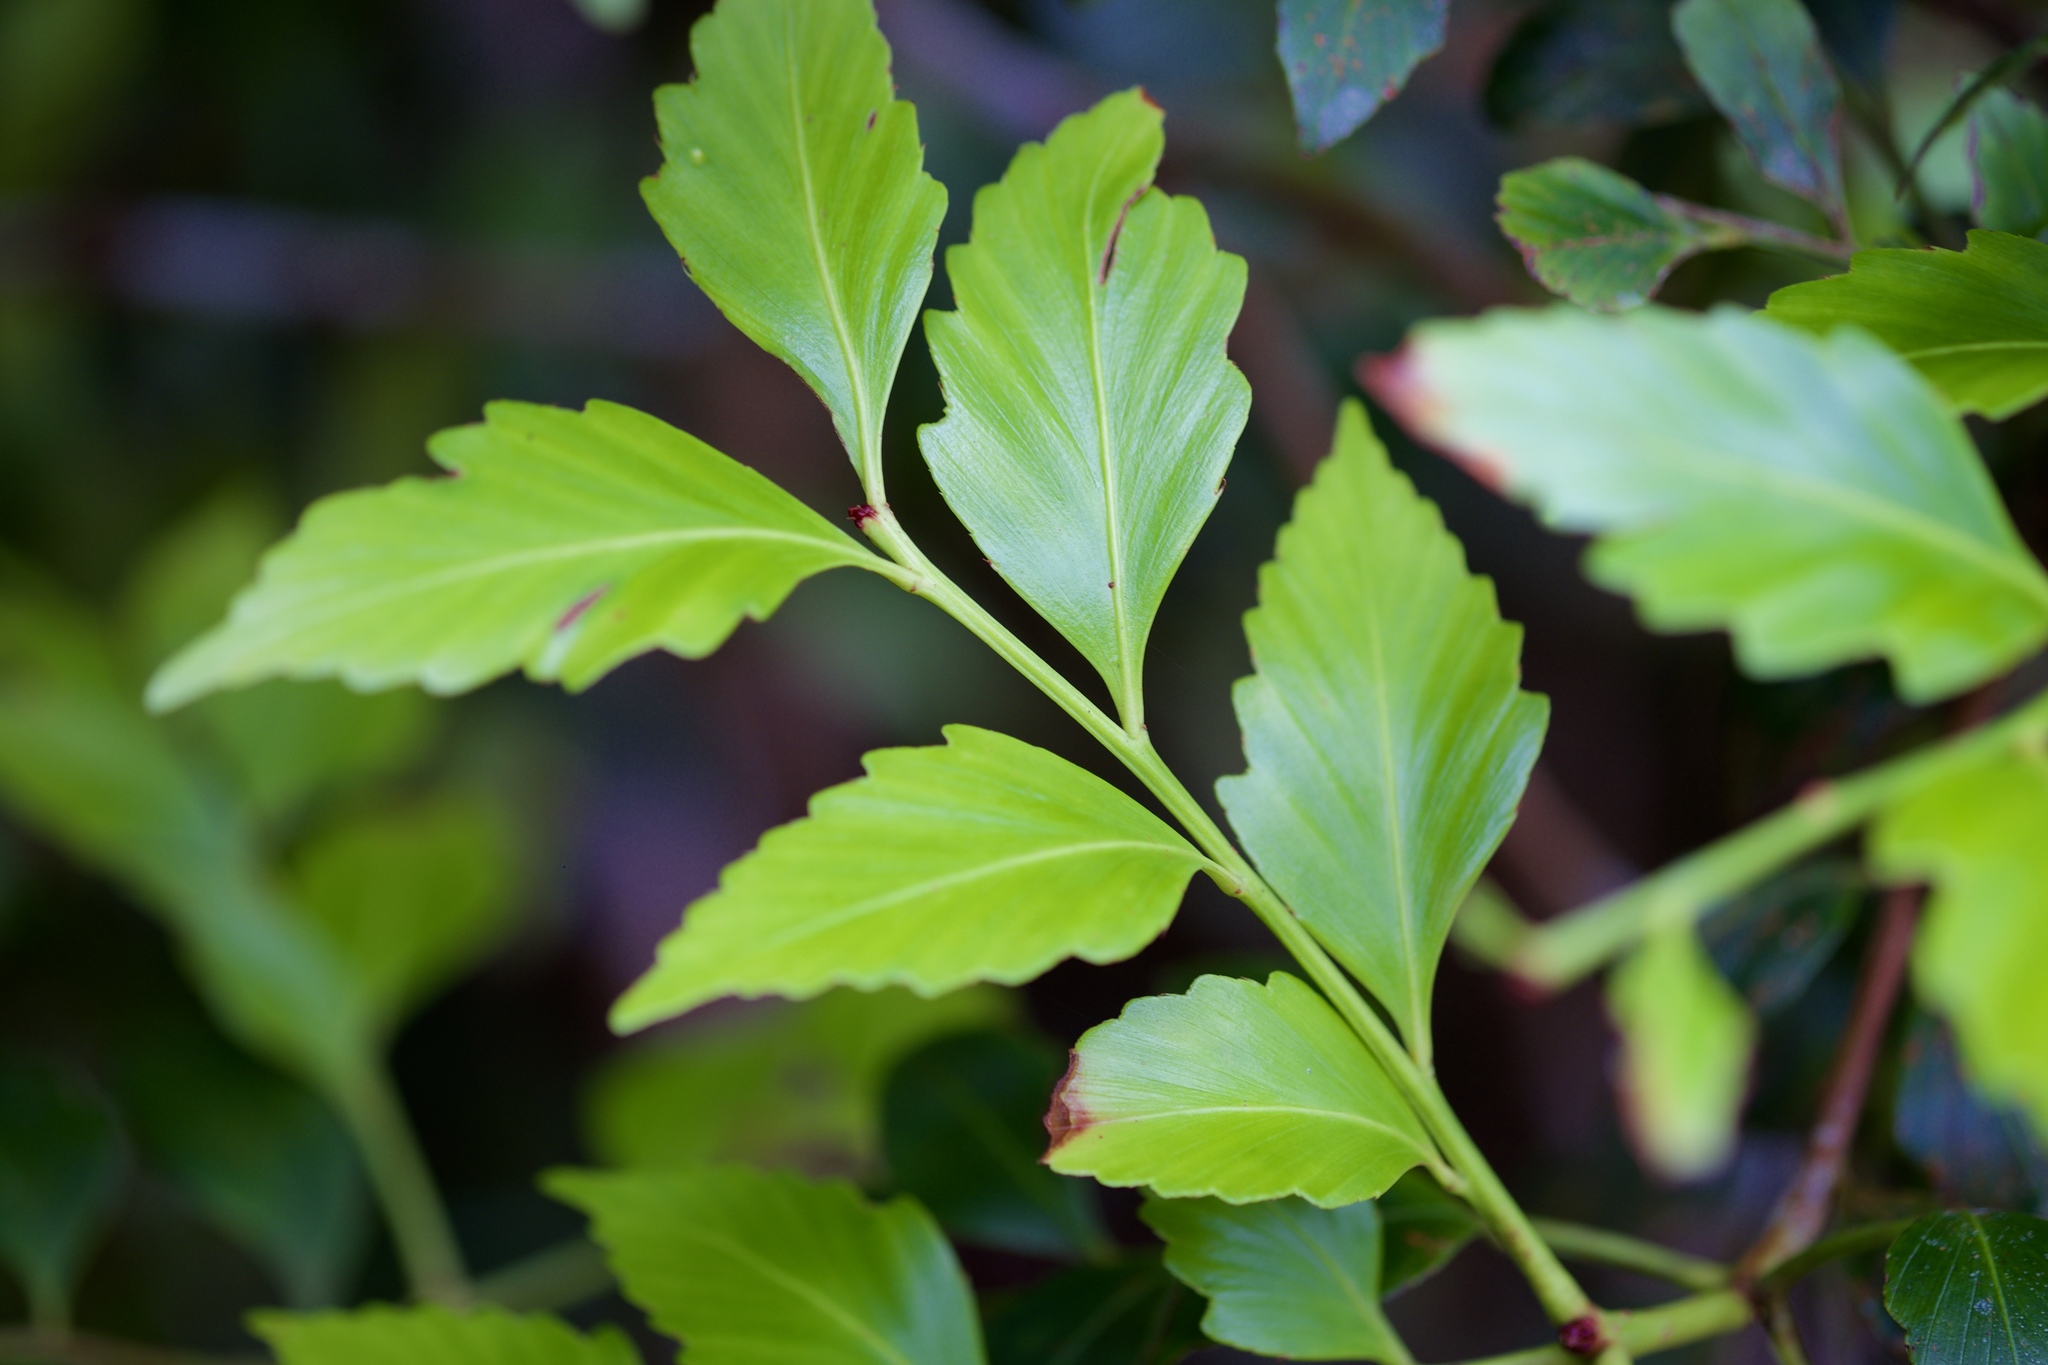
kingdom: Plantae
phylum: Tracheophyta
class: Pinopsida
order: Pinales
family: Phyllocladaceae
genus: Phyllocladus
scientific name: Phyllocladus hypophyllus
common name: Celery pine
